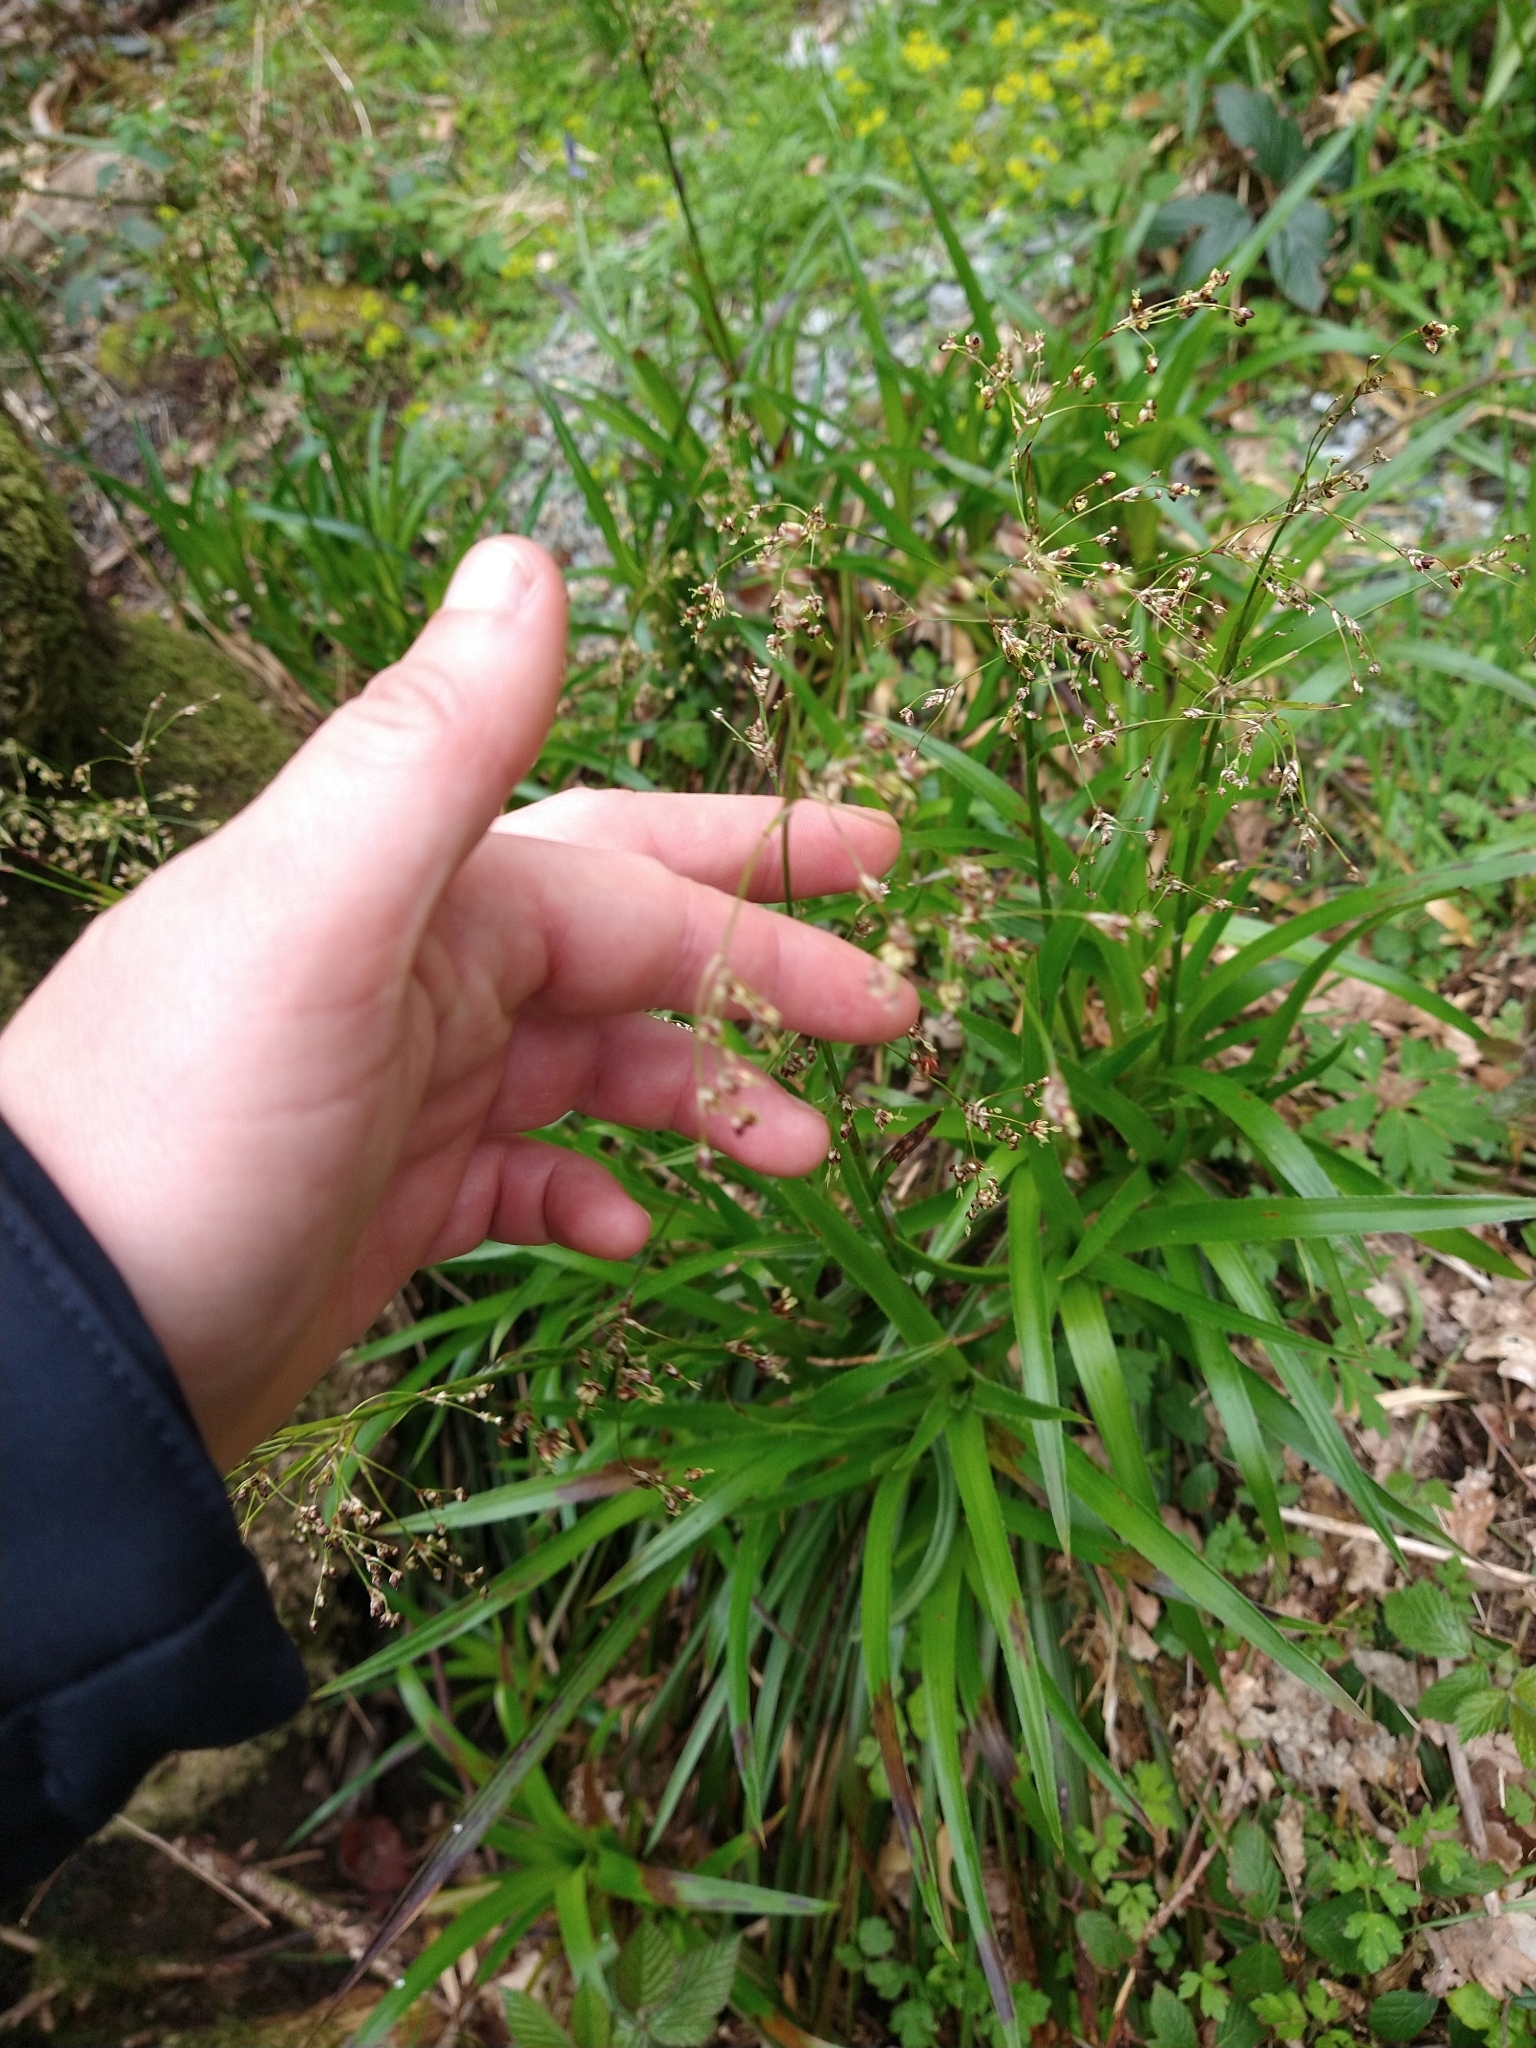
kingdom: Plantae
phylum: Tracheophyta
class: Liliopsida
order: Poales
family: Juncaceae
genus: Luzula
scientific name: Luzula sylvatica
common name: Great wood-rush
